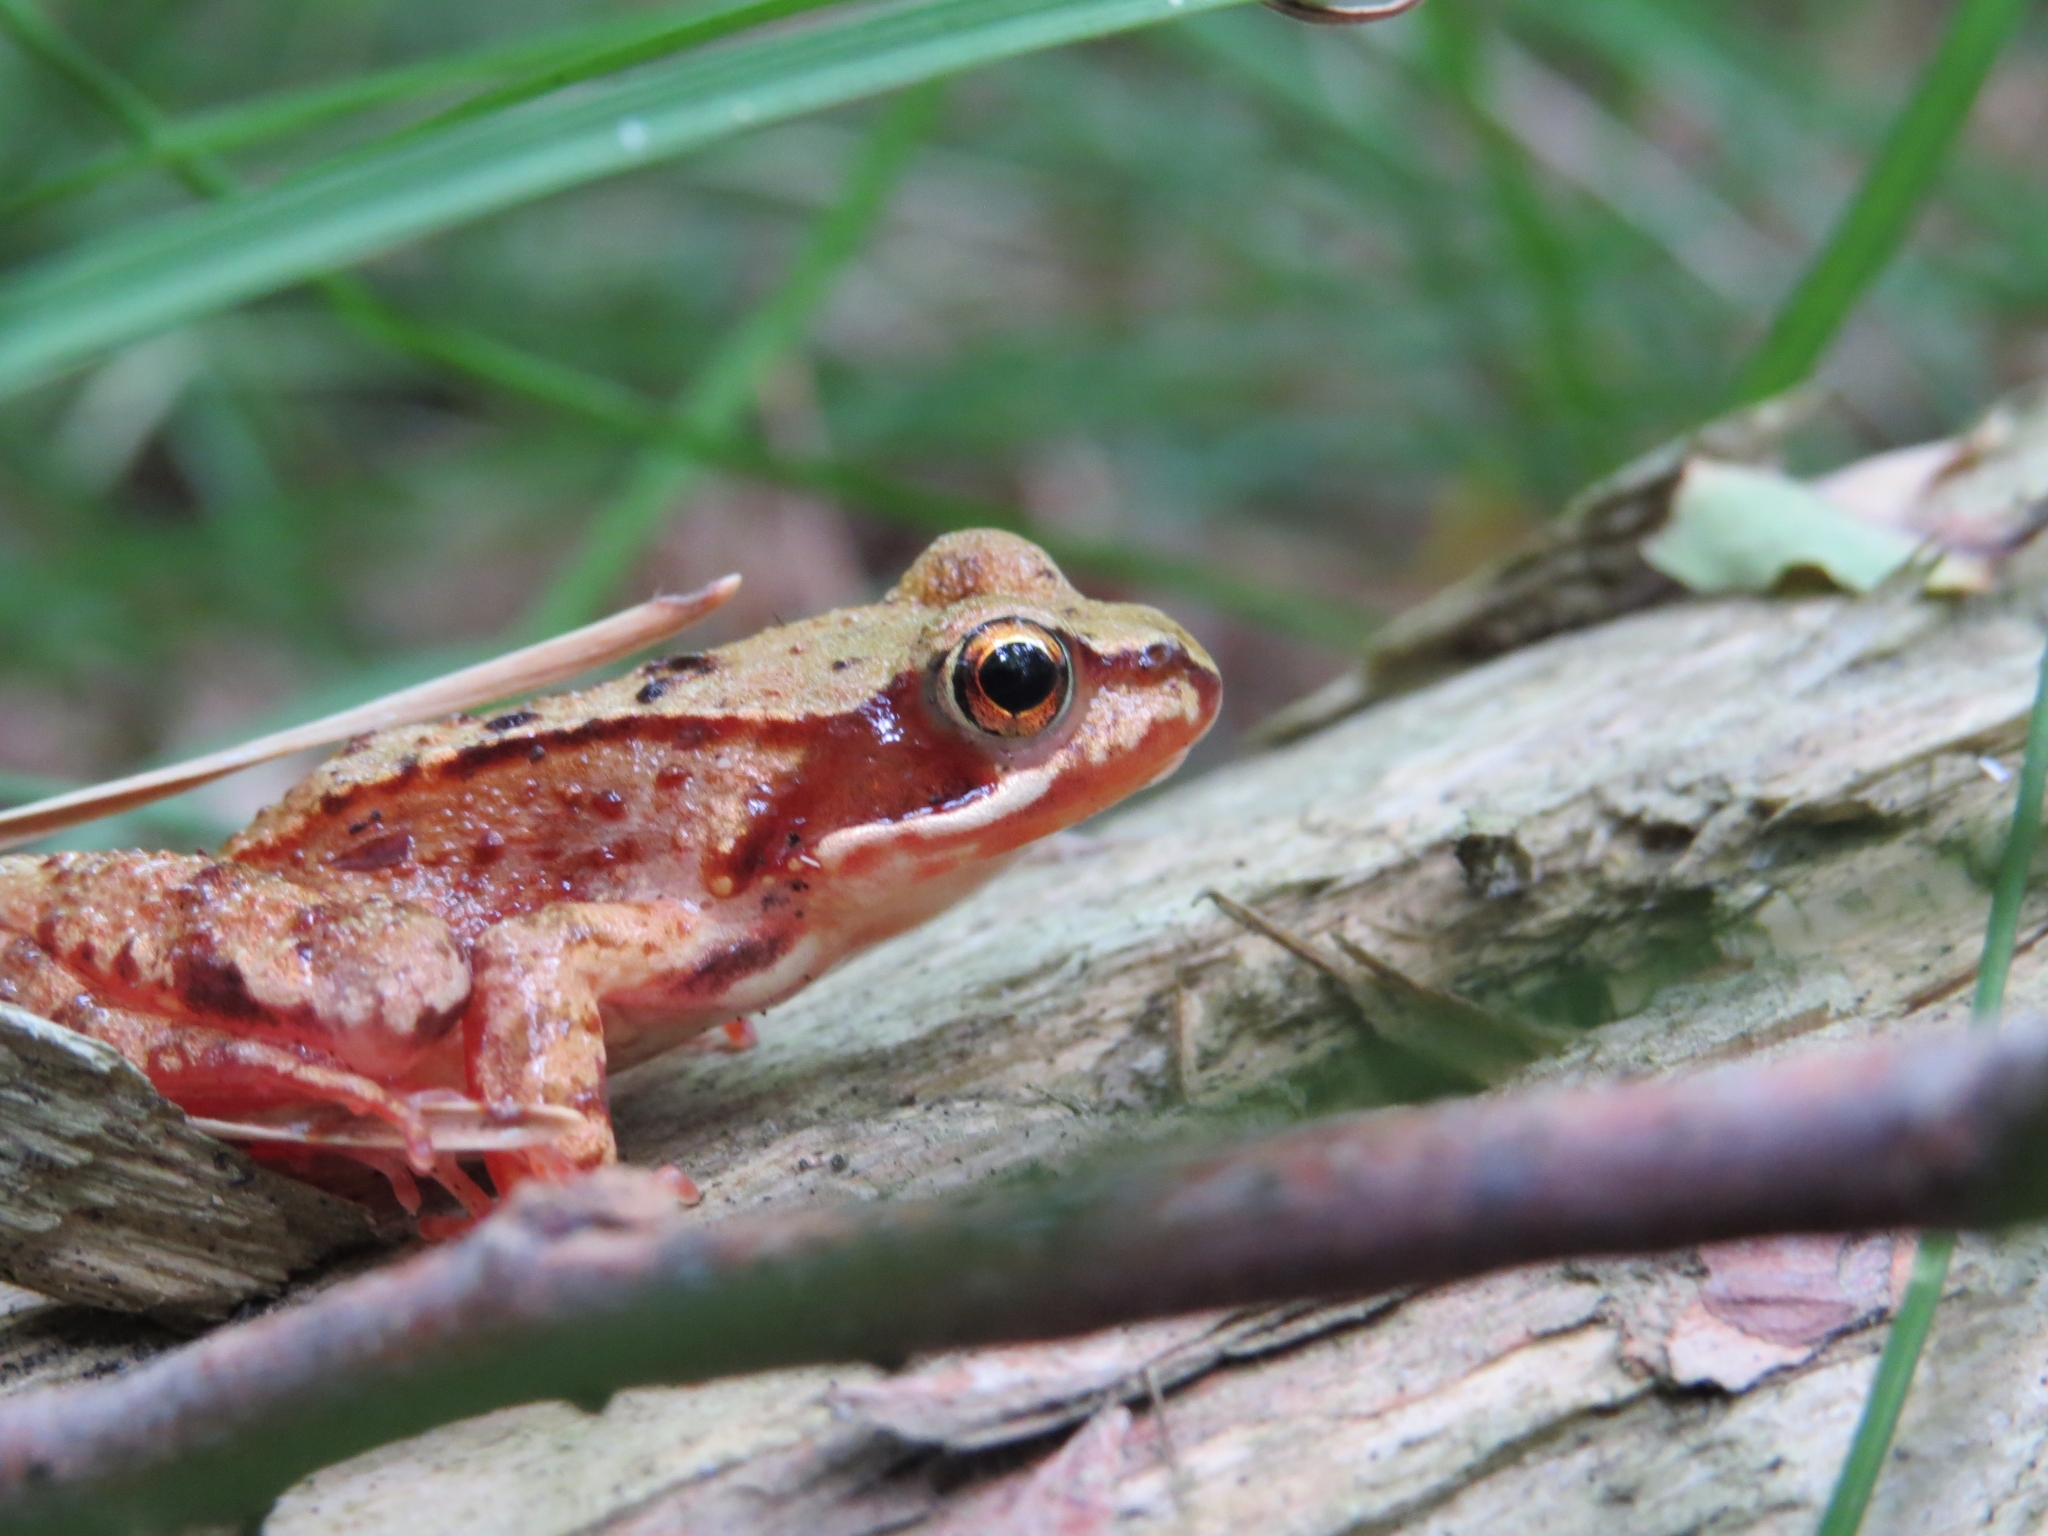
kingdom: Animalia
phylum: Chordata
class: Amphibia
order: Anura
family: Ranidae
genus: Rana
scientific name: Rana temporaria
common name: Common frog
